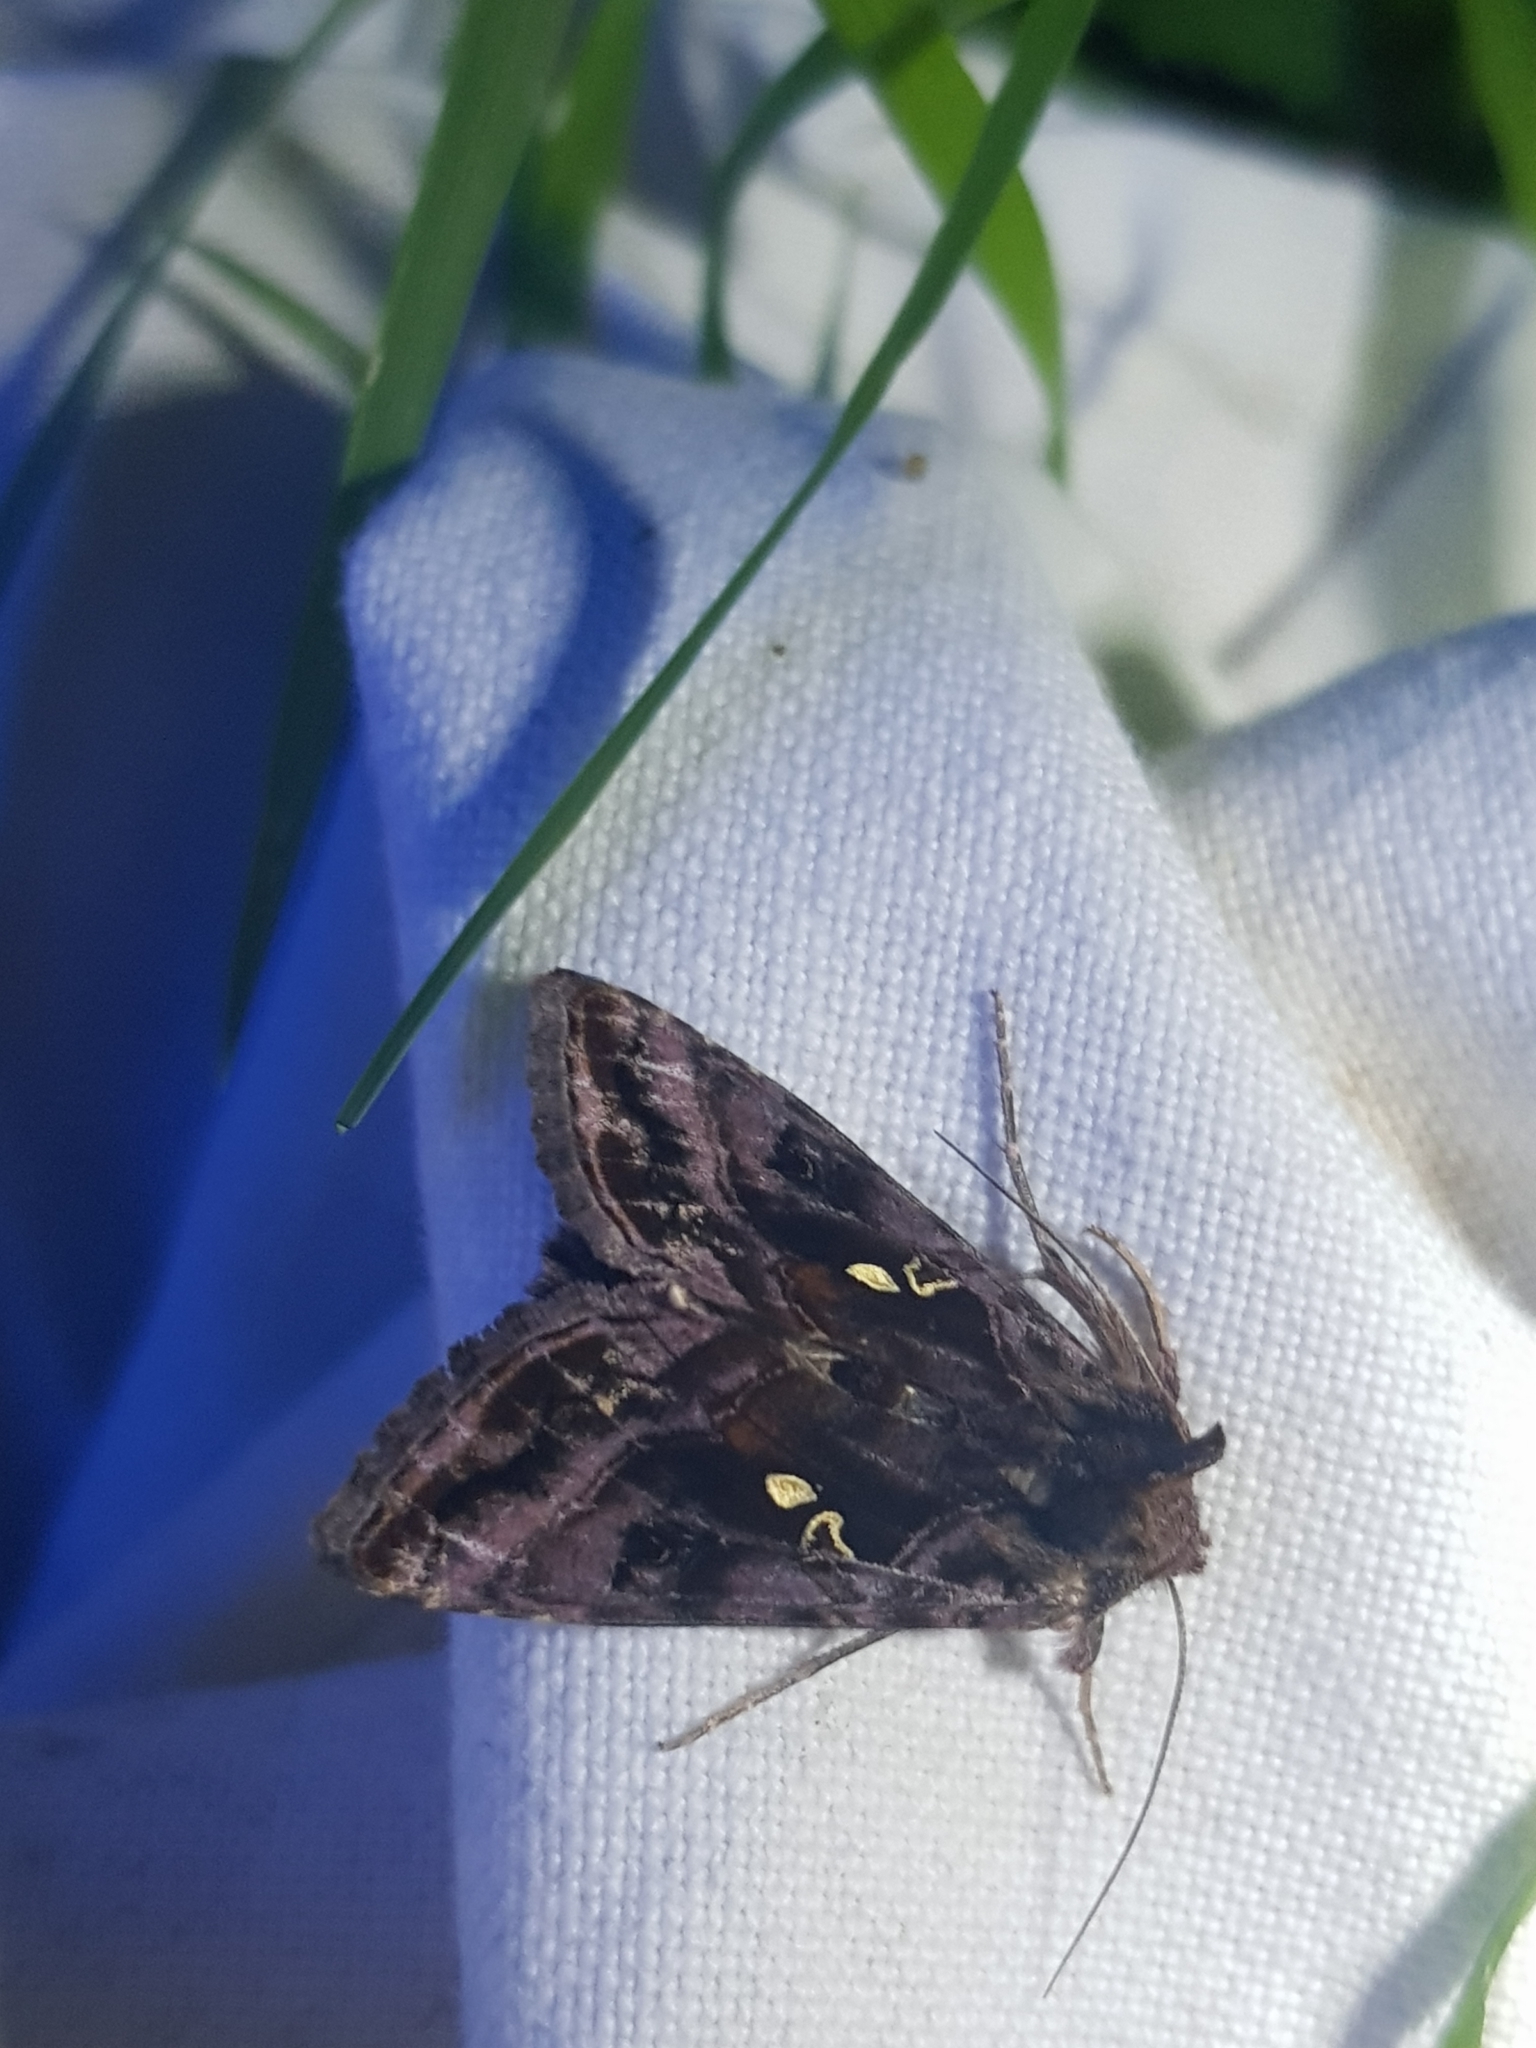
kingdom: Animalia
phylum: Arthropoda
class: Insecta
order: Lepidoptera
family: Noctuidae
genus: Autographa
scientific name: Autographa pulchrina
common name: Beautiful golden y
